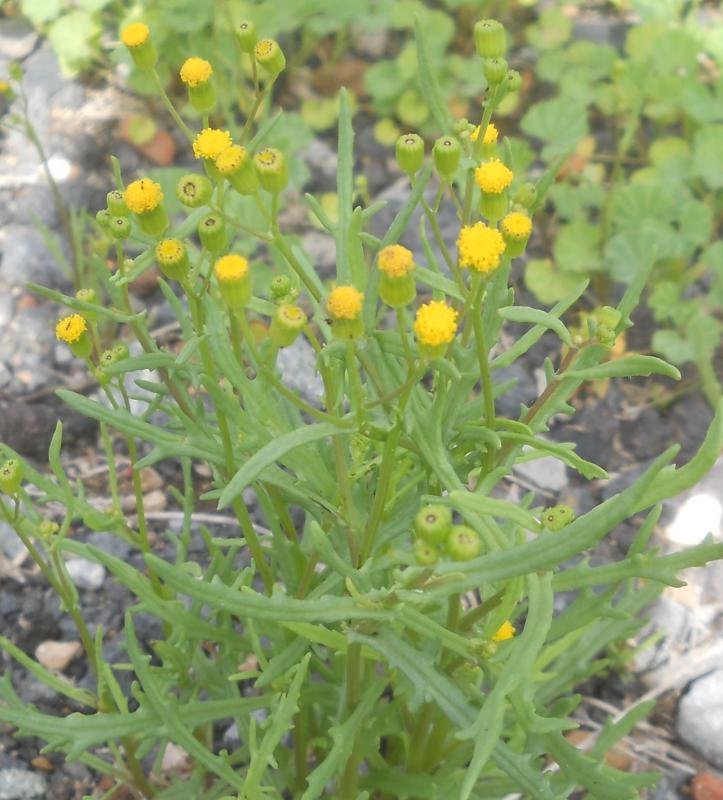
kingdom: Plantae
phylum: Tracheophyta
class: Magnoliopsida
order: Asterales
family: Asteraceae
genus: Senecio
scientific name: Senecio massaicus
